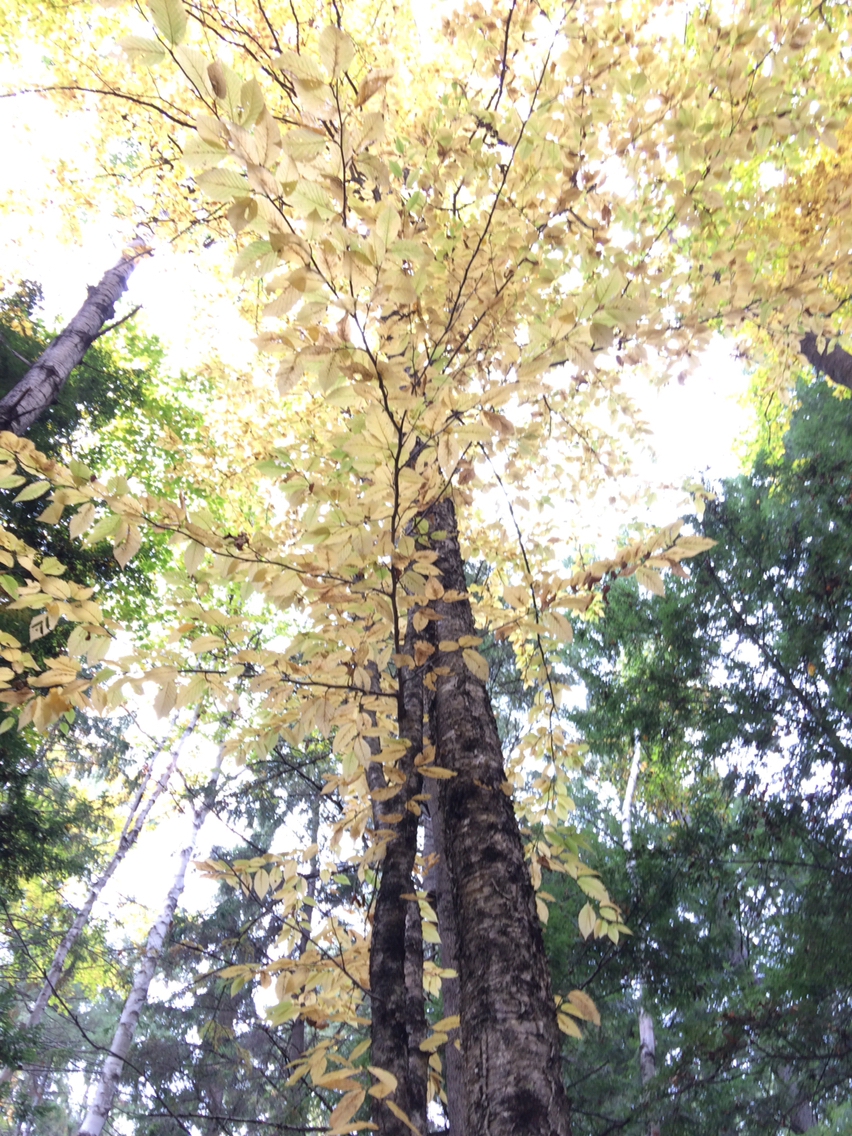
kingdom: Plantae
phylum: Tracheophyta
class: Magnoliopsida
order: Fagales
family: Betulaceae
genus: Betula
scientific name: Betula alleghaniensis
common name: Yellow birch
